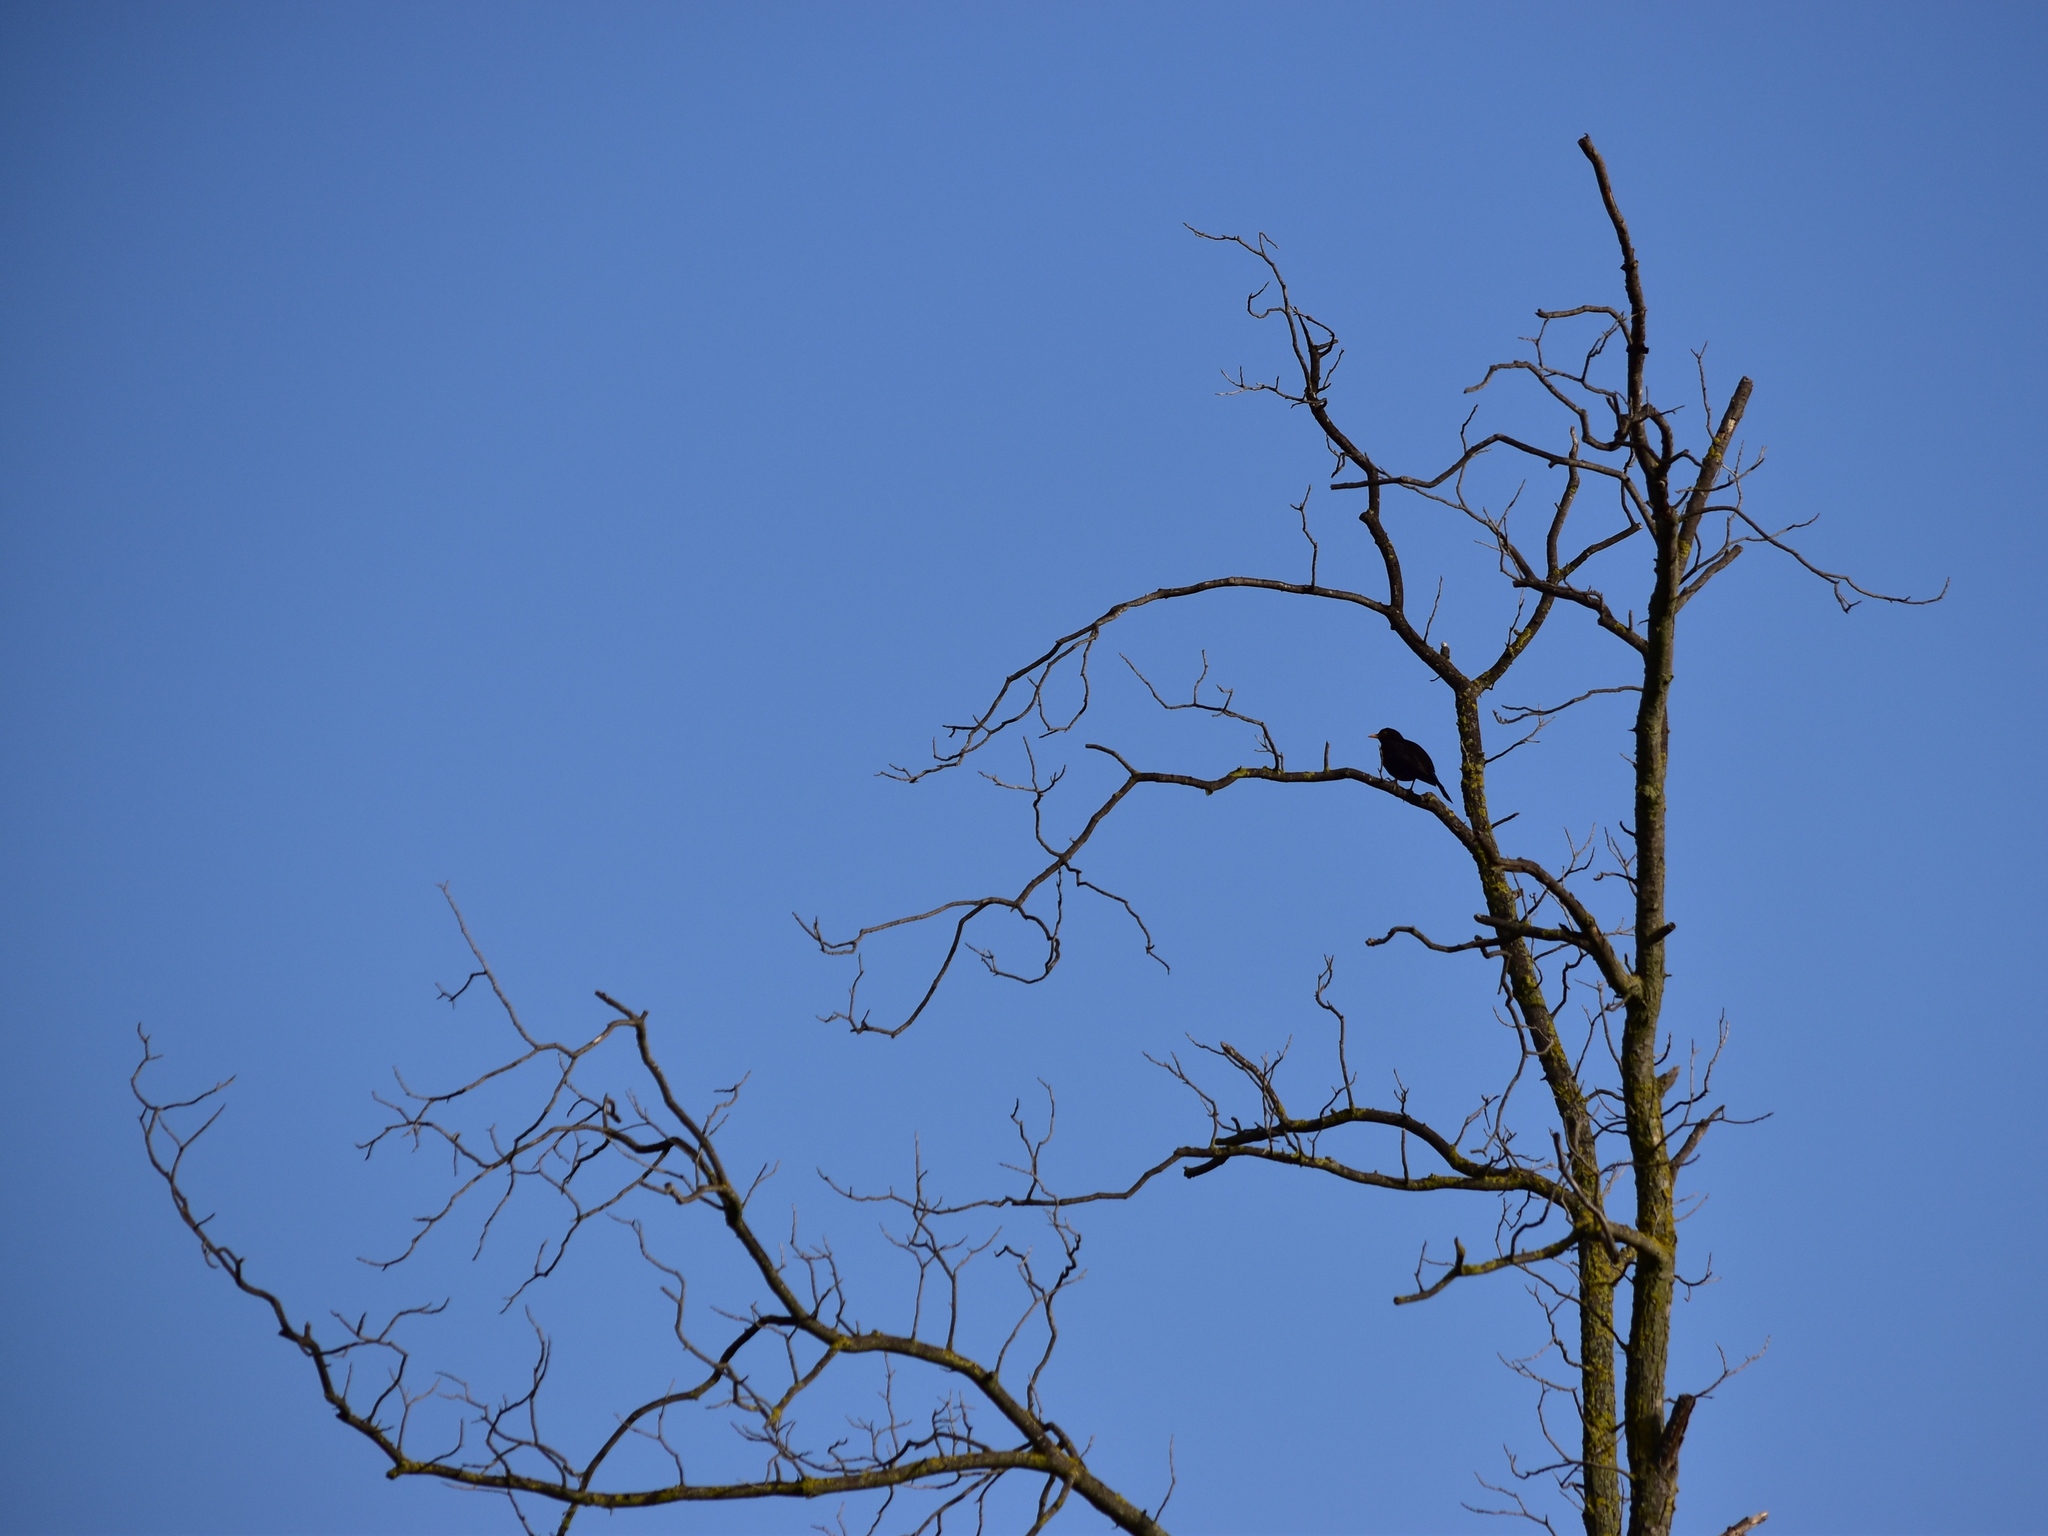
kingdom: Animalia
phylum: Chordata
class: Aves
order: Passeriformes
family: Turdidae
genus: Turdus
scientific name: Turdus merula
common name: Common blackbird
